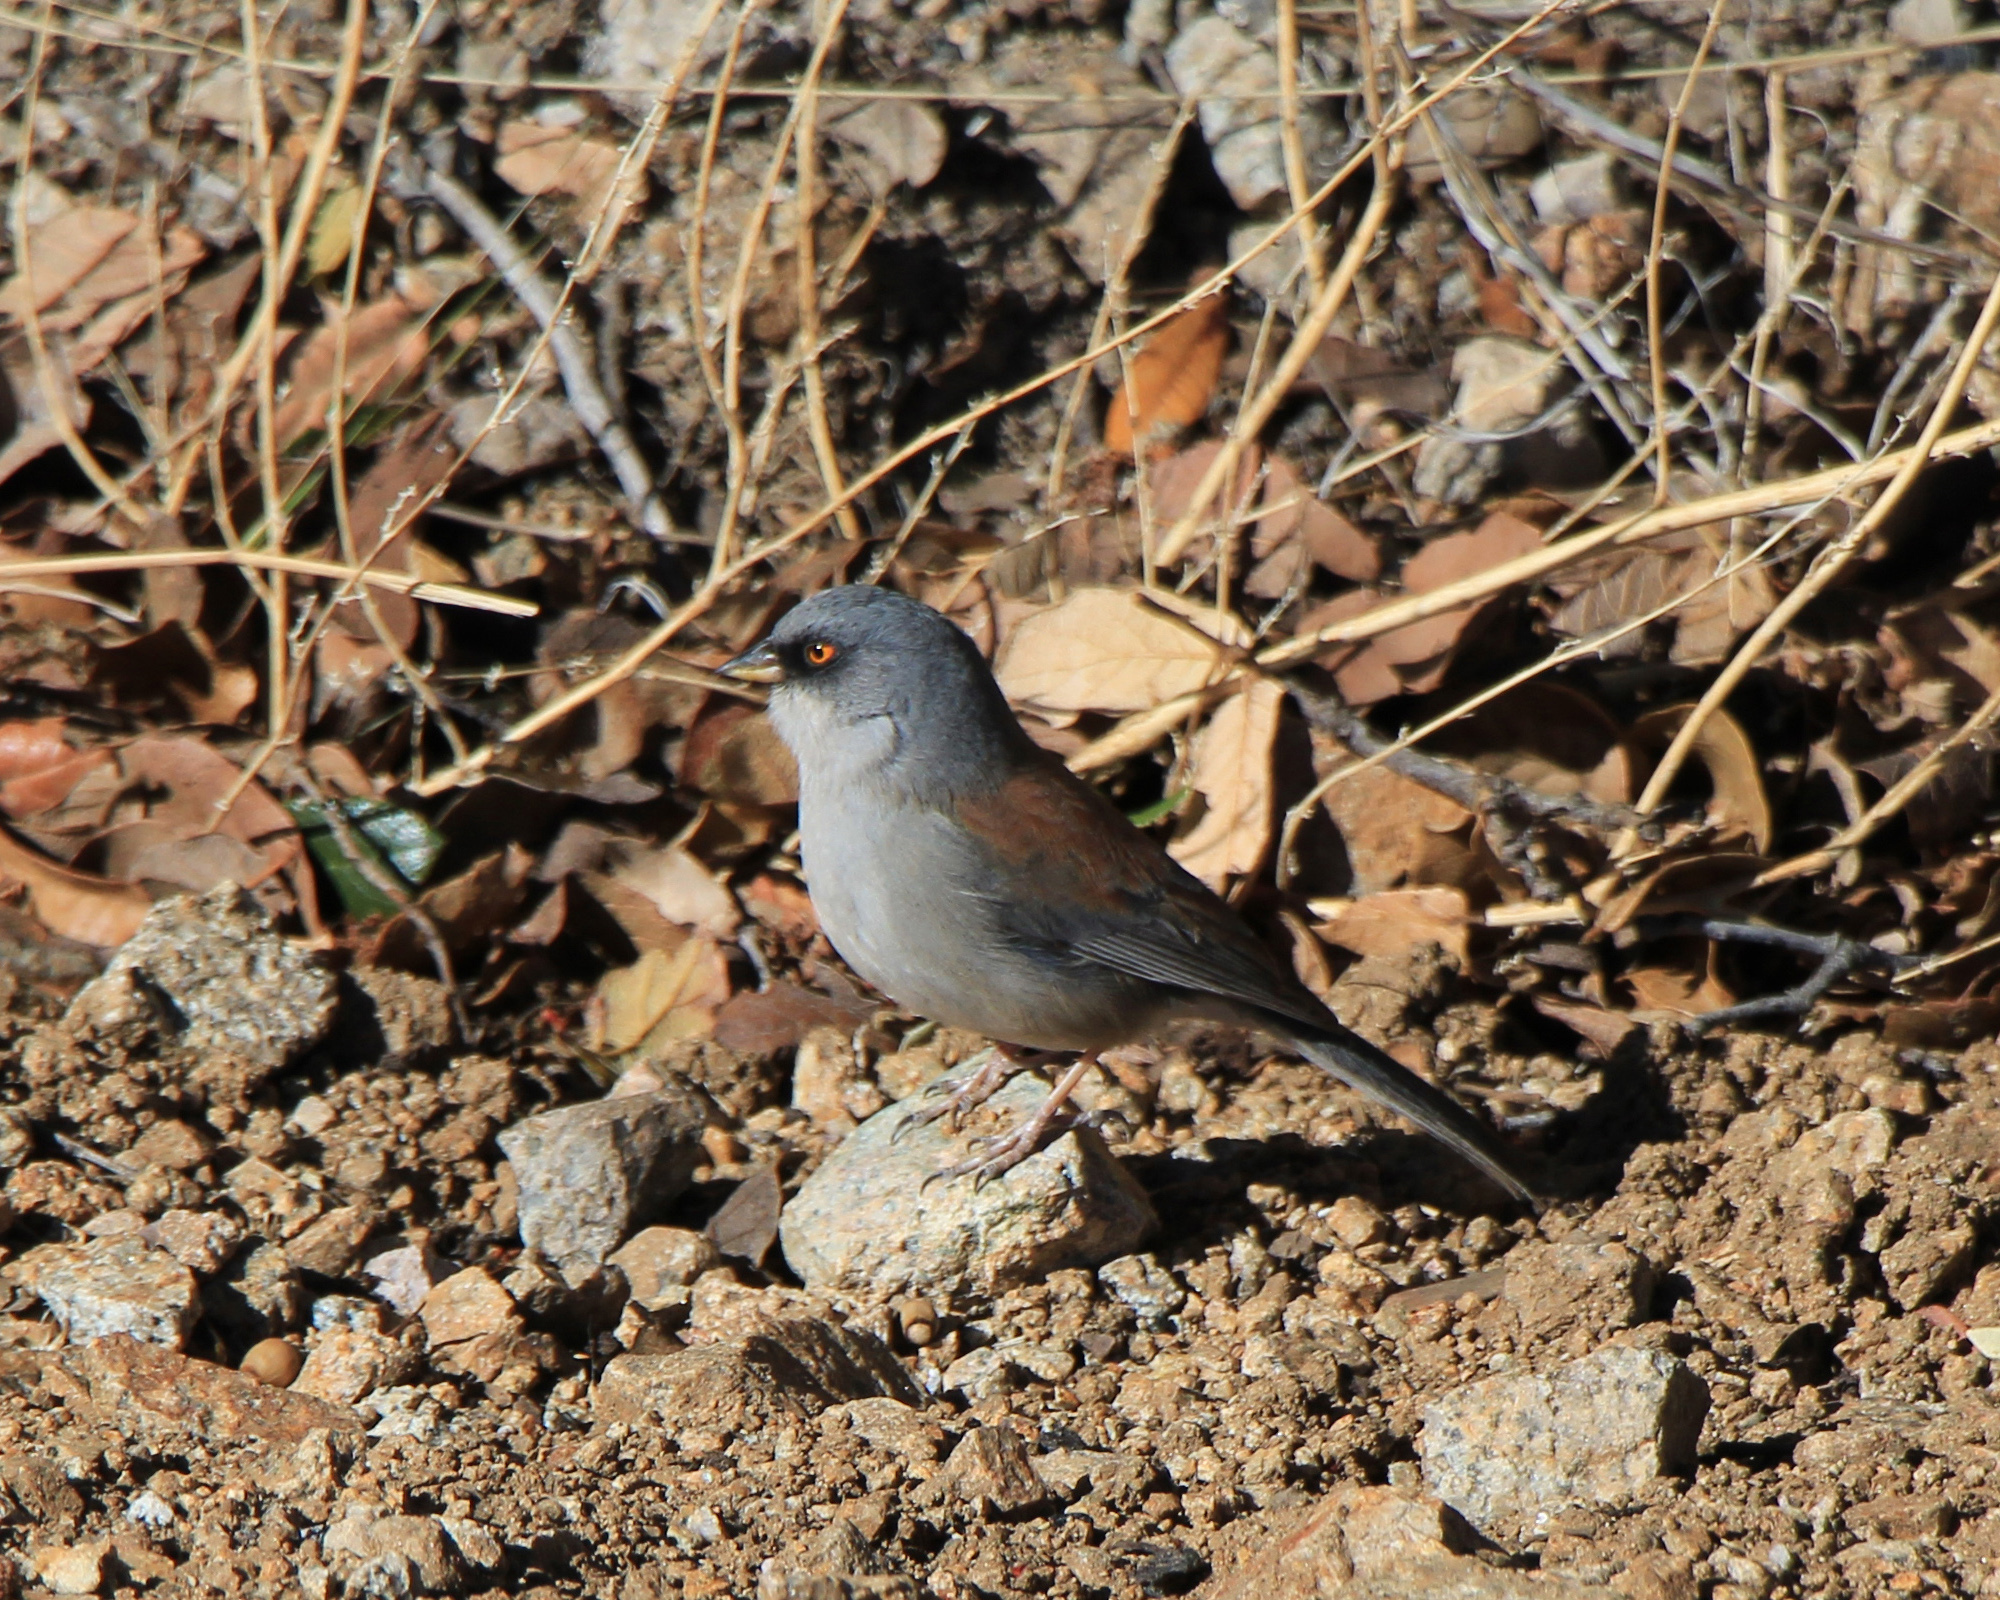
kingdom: Animalia
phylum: Chordata
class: Aves
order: Passeriformes
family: Passerellidae
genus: Junco
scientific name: Junco phaeonotus
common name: Yellow-eyed junco
